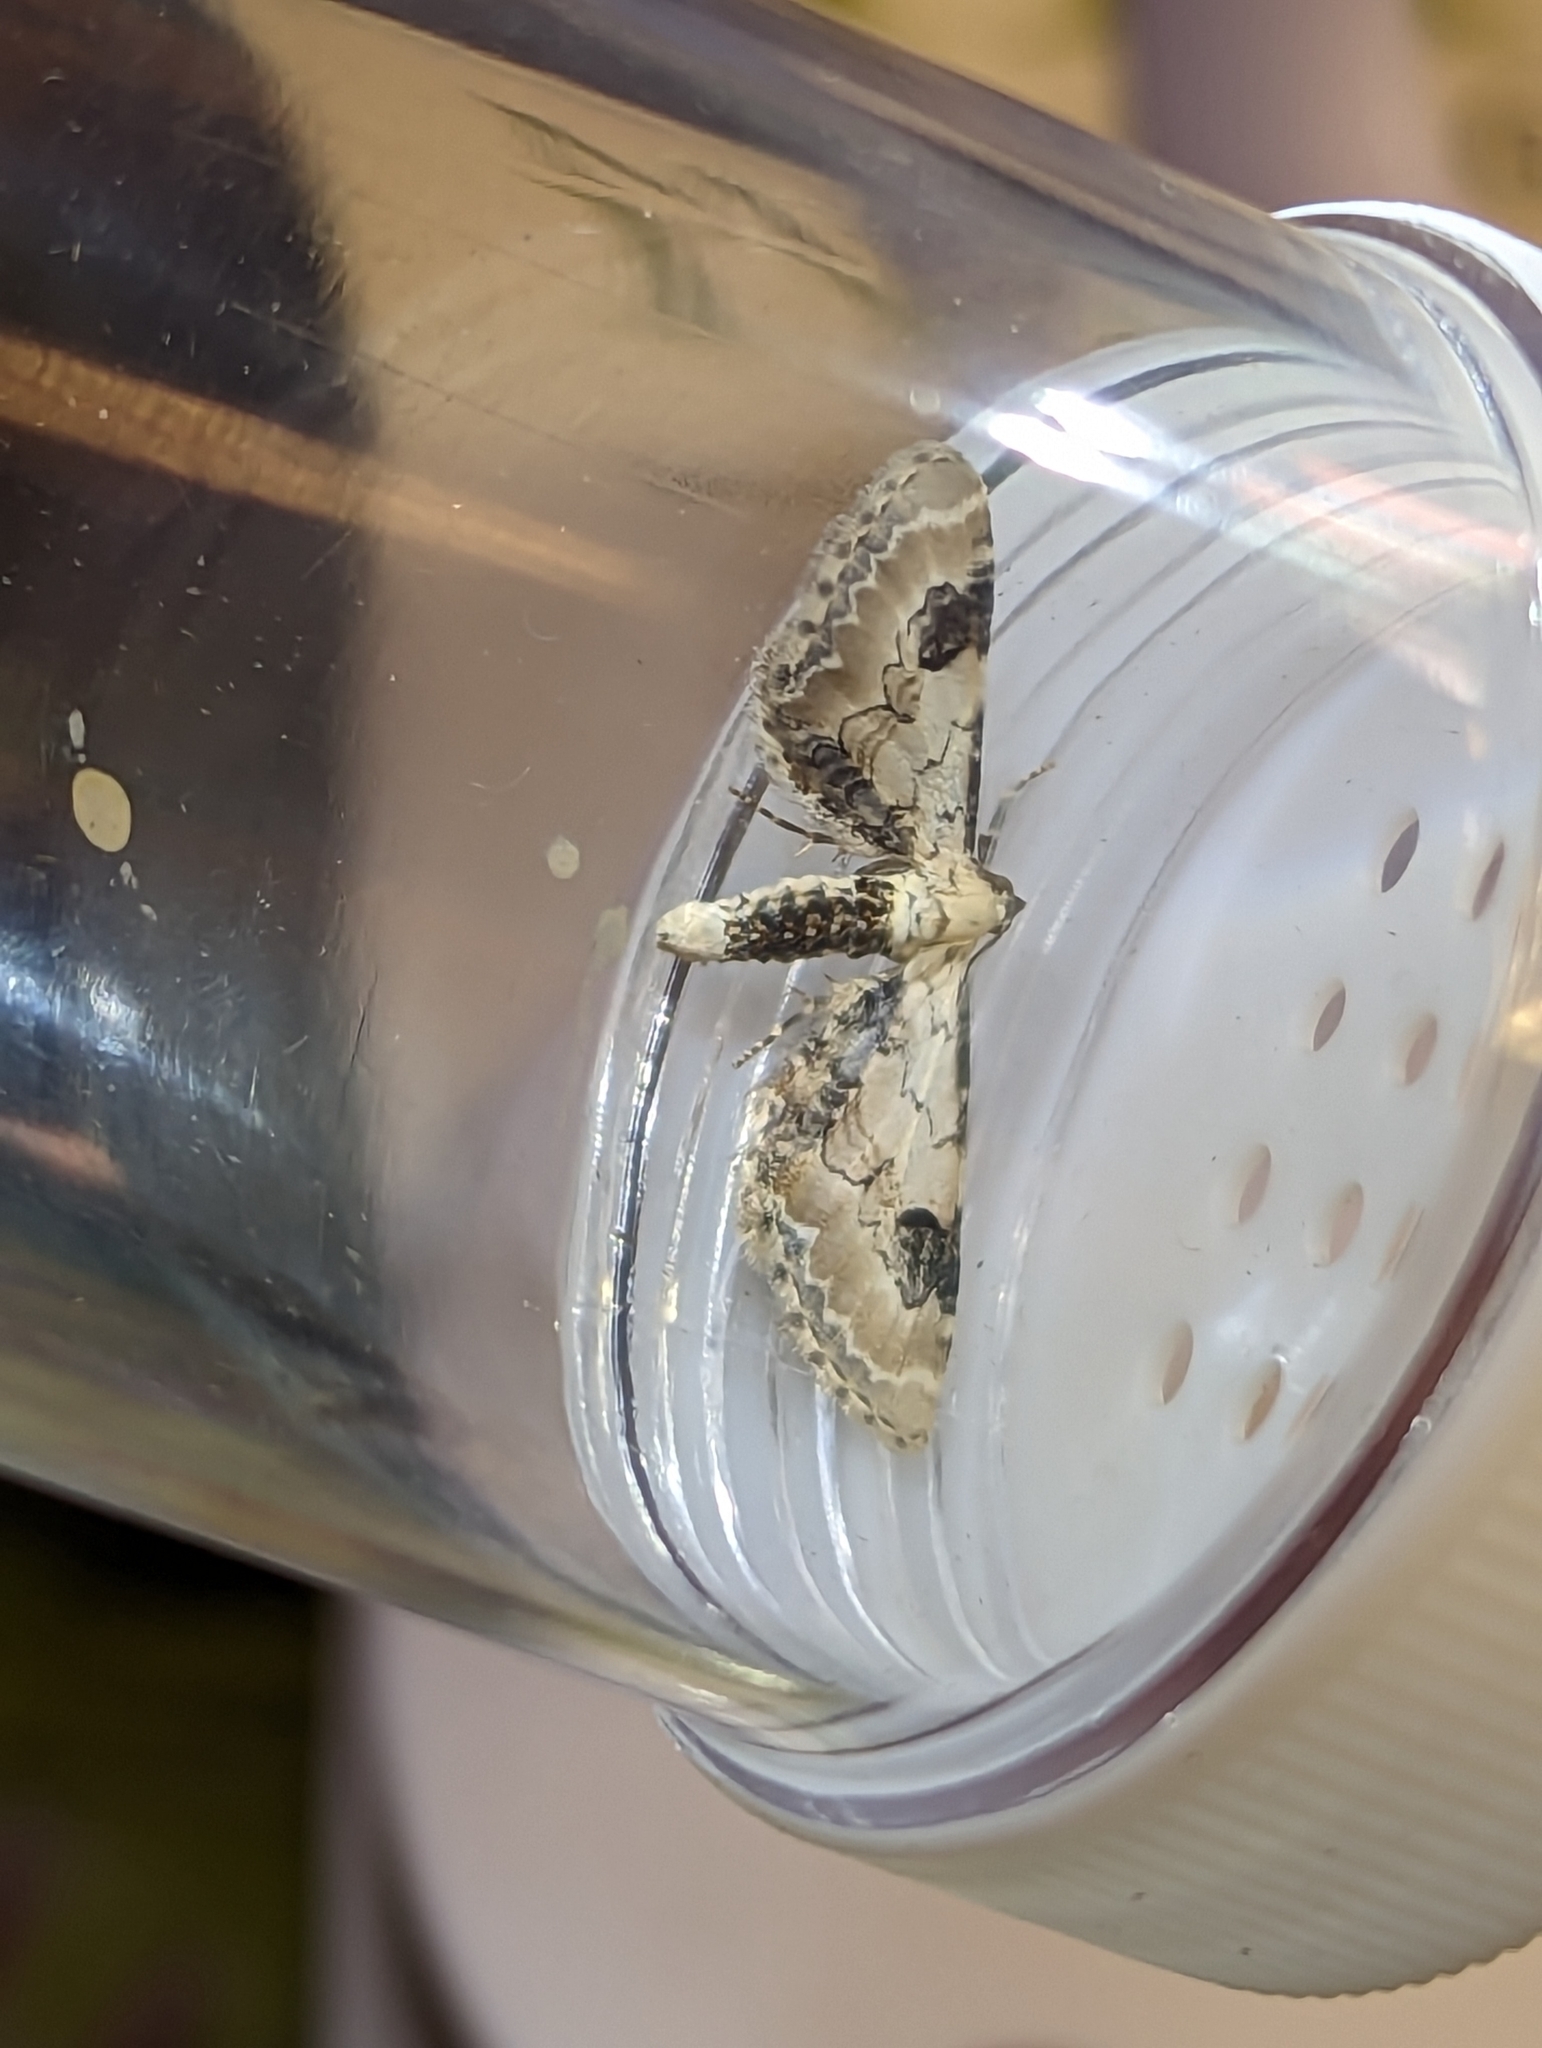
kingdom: Animalia
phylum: Arthropoda
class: Insecta
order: Lepidoptera
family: Geometridae
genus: Eupithecia
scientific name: Eupithecia centaureata
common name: Lime-speck pug
